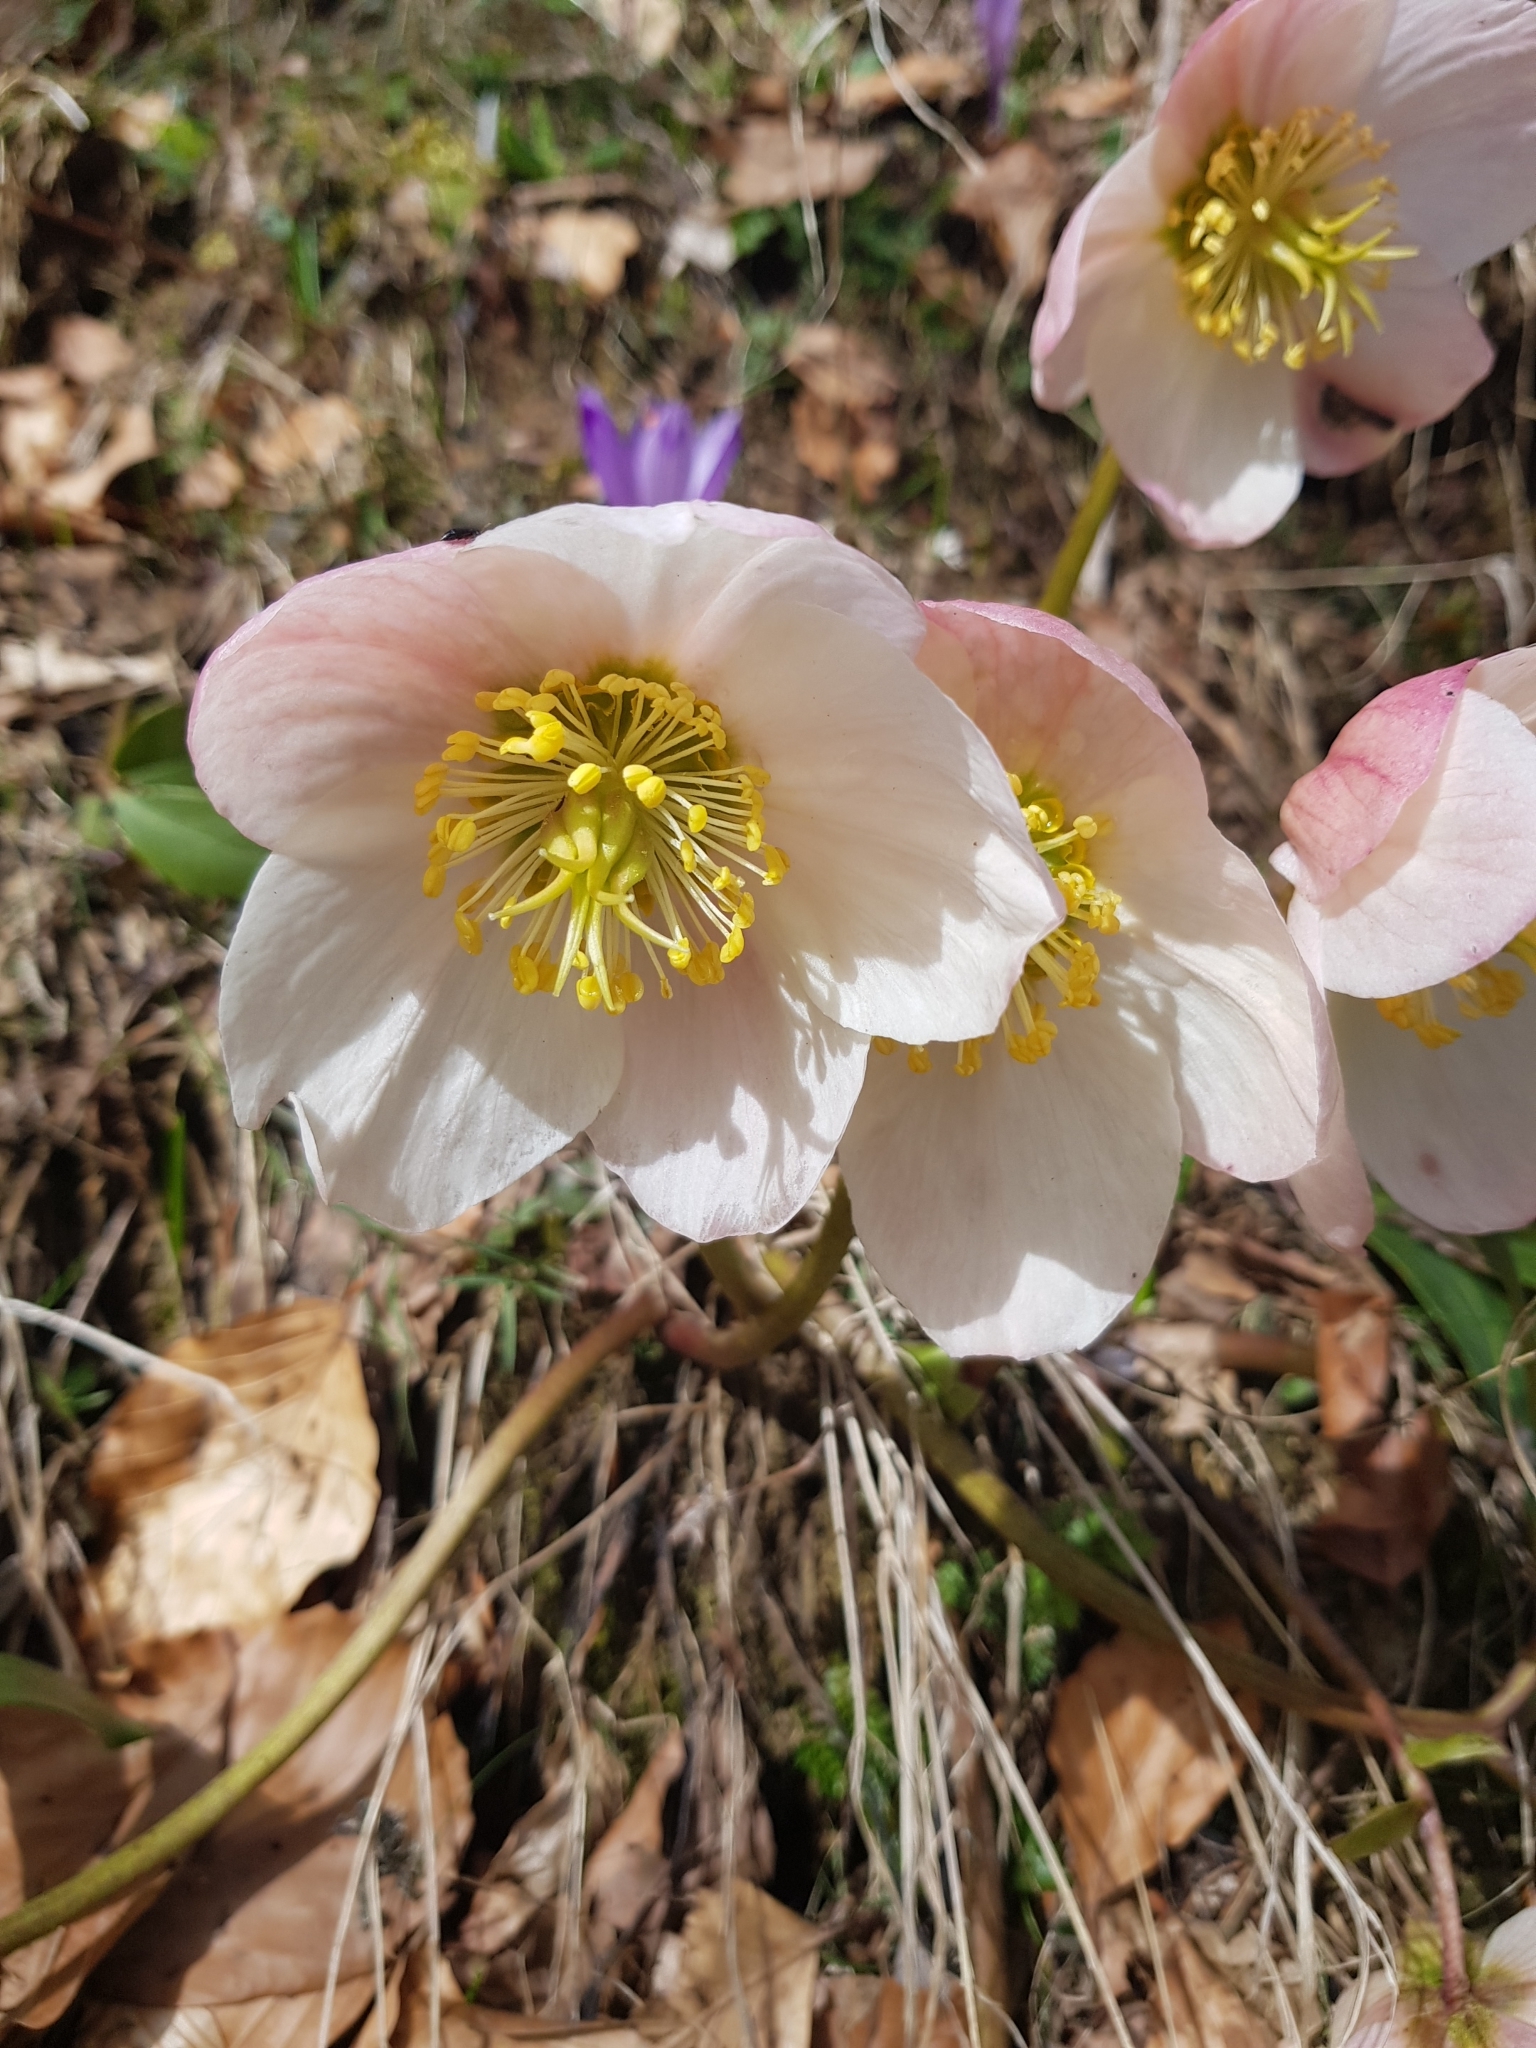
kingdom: Plantae
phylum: Tracheophyta
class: Magnoliopsida
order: Ranunculales
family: Ranunculaceae
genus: Helleborus
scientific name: Helleborus niger
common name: Black hellebore
